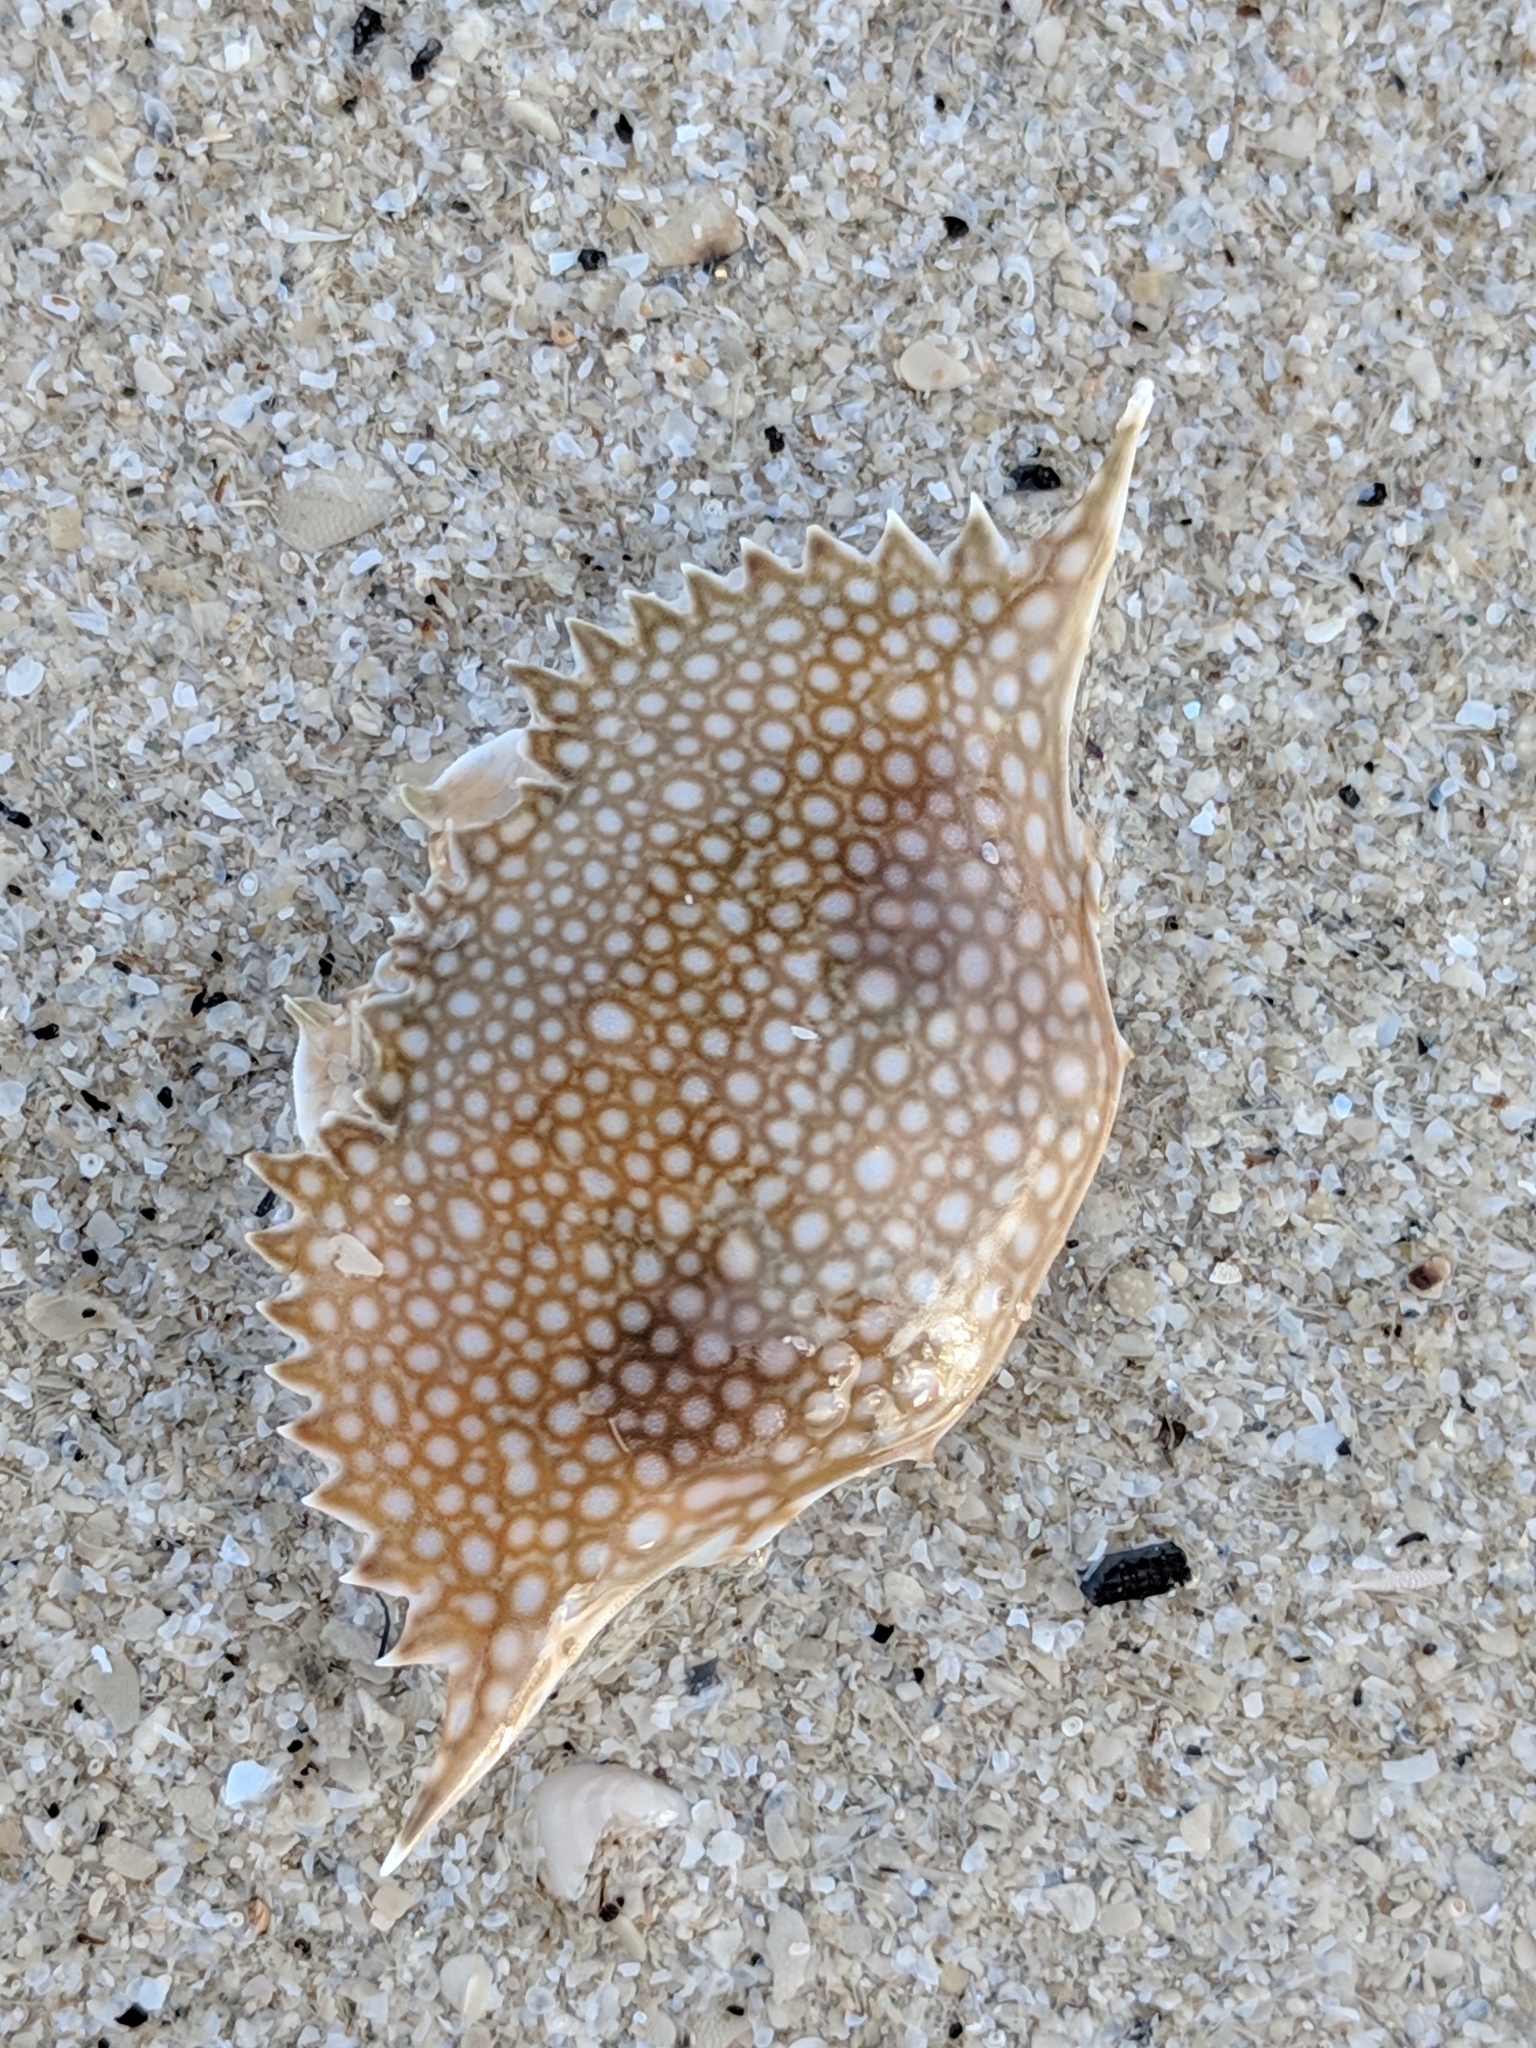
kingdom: Animalia
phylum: Arthropoda
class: Malacostraca
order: Decapoda
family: Portunidae
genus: Arenaeus
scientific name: Arenaeus cribrarius
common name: Speckled crab
